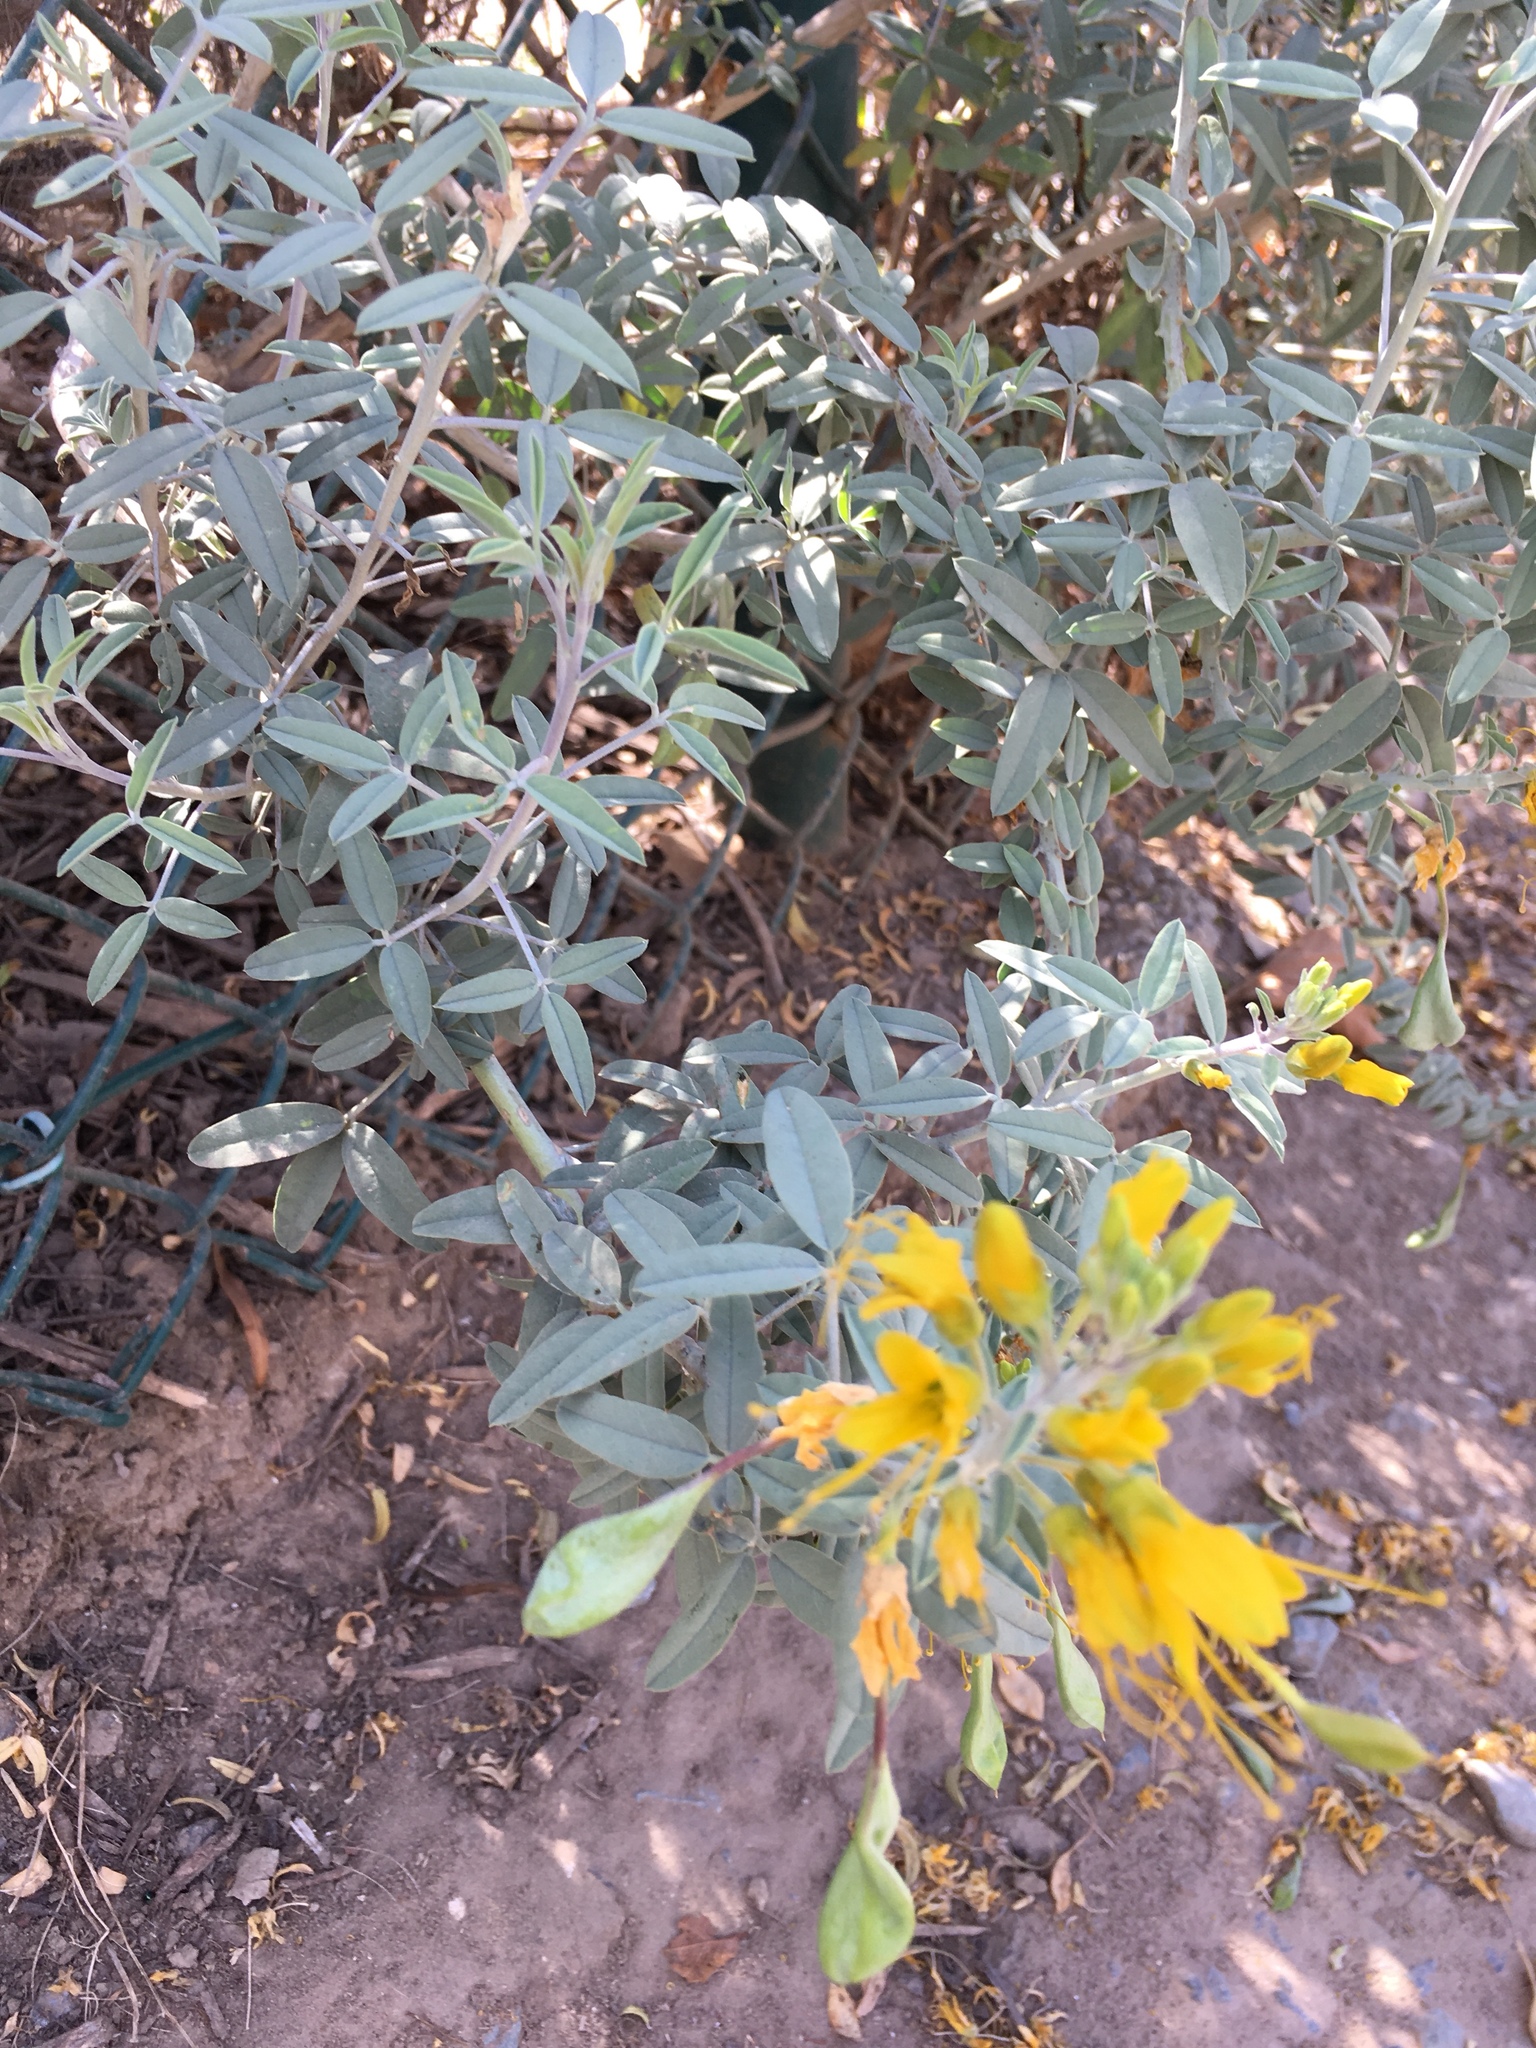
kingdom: Plantae
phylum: Tracheophyta
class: Magnoliopsida
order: Brassicales
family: Cleomaceae
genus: Cleomella
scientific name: Cleomella arborea
